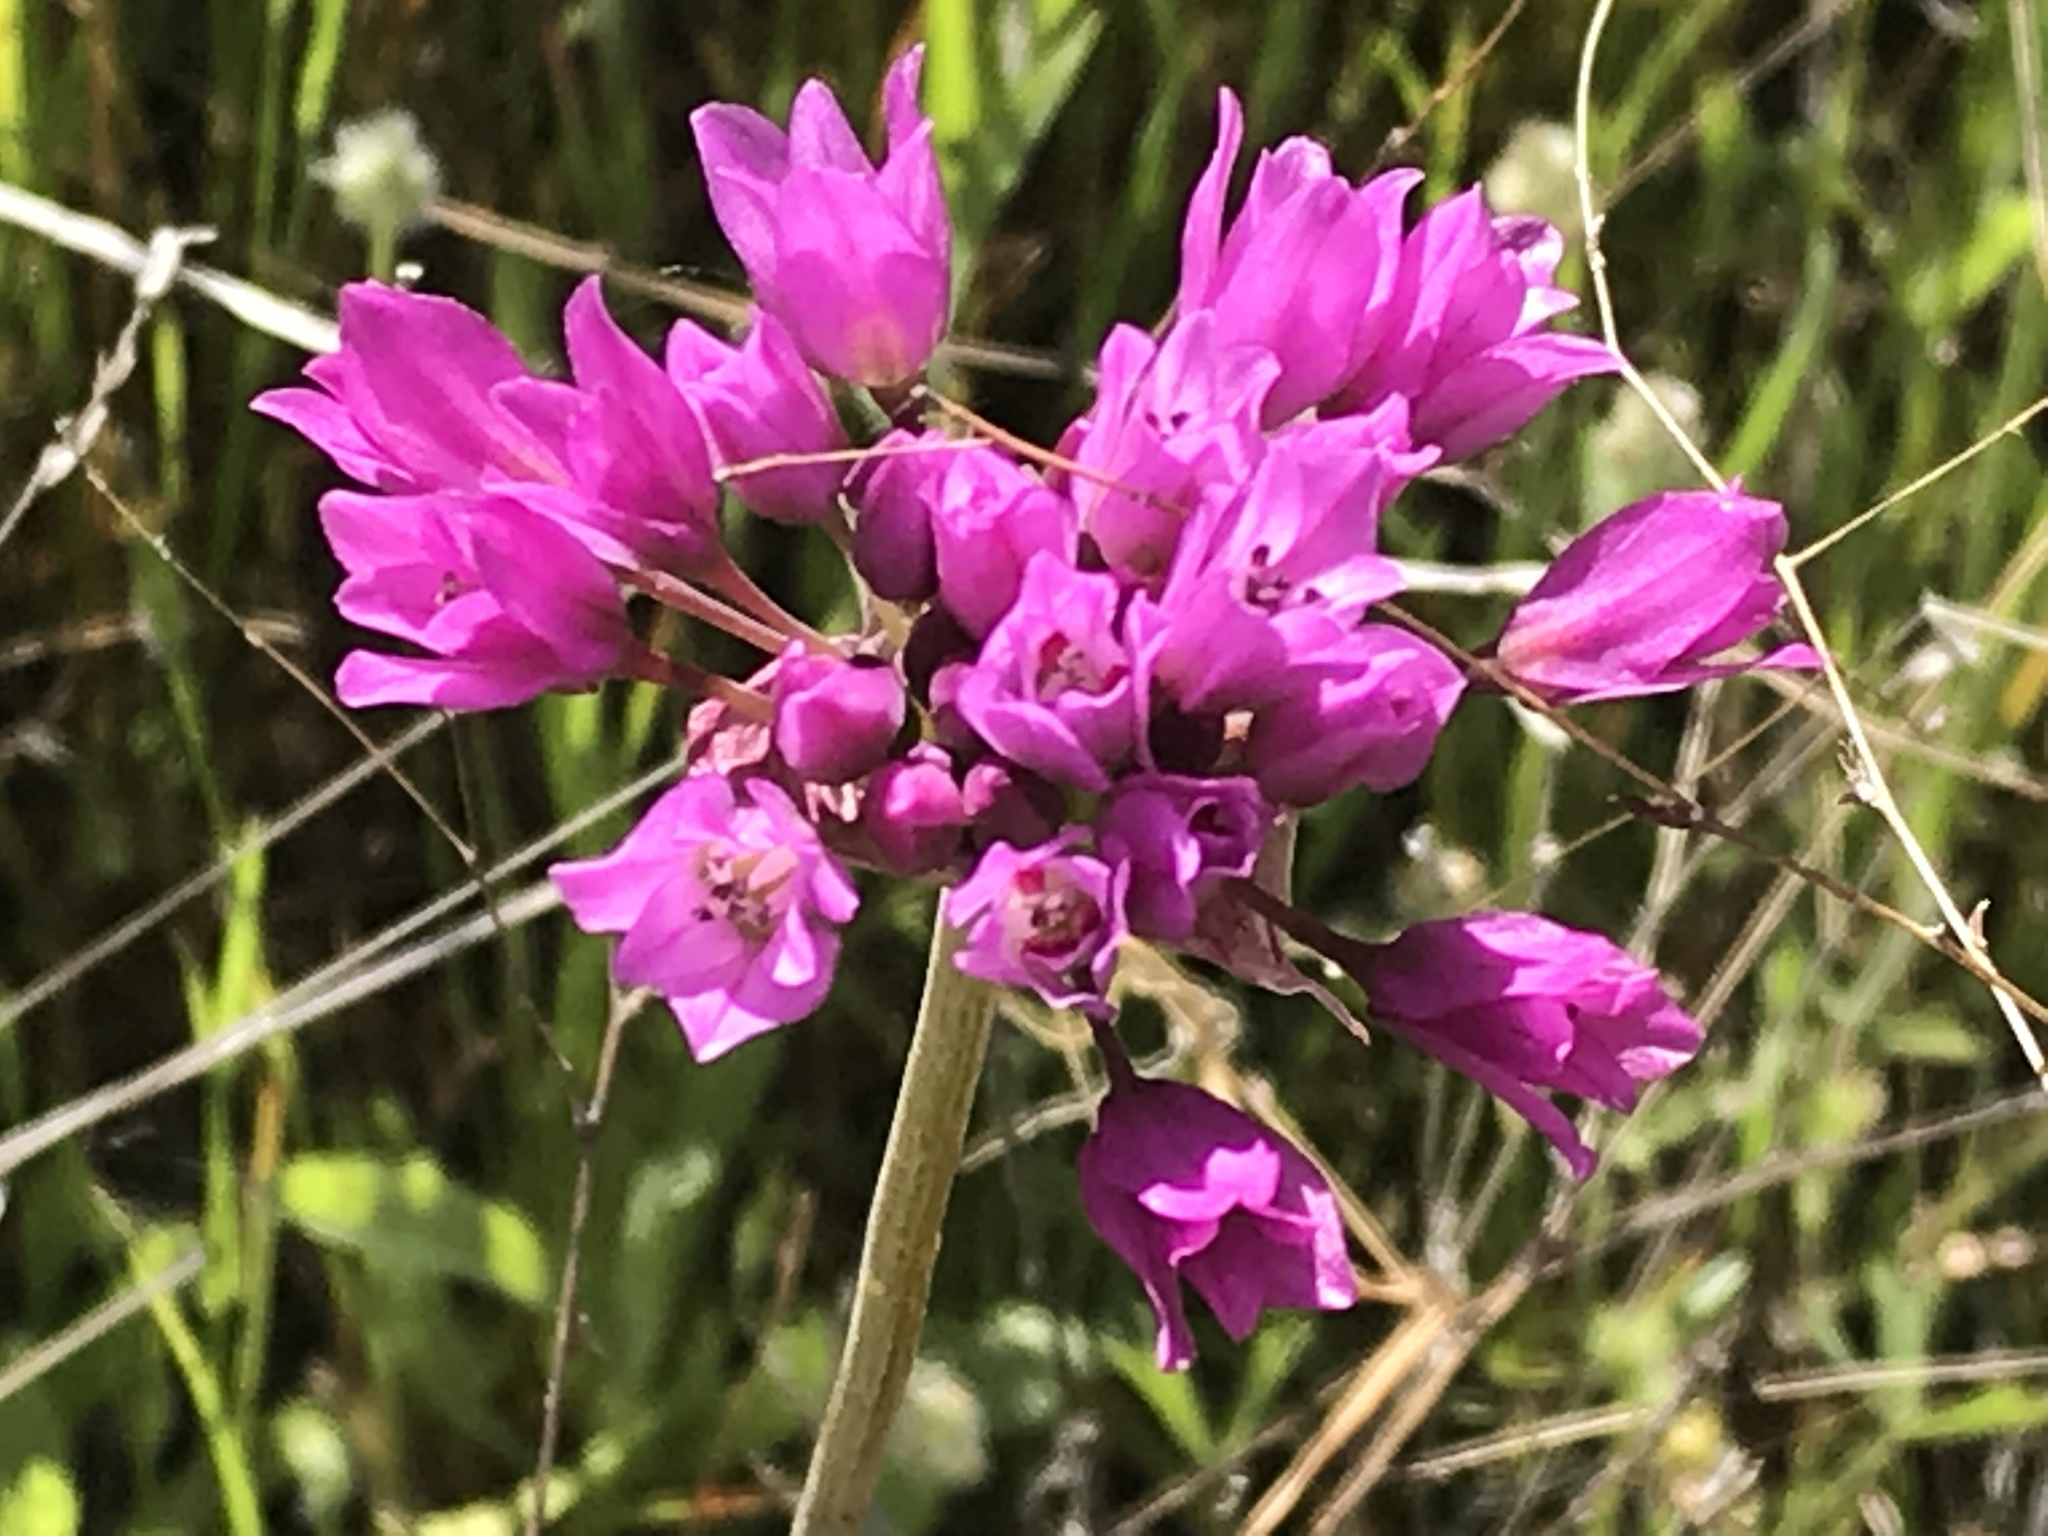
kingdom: Plantae
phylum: Tracheophyta
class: Liliopsida
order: Asparagales
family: Amaryllidaceae
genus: Allium
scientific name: Allium serra
